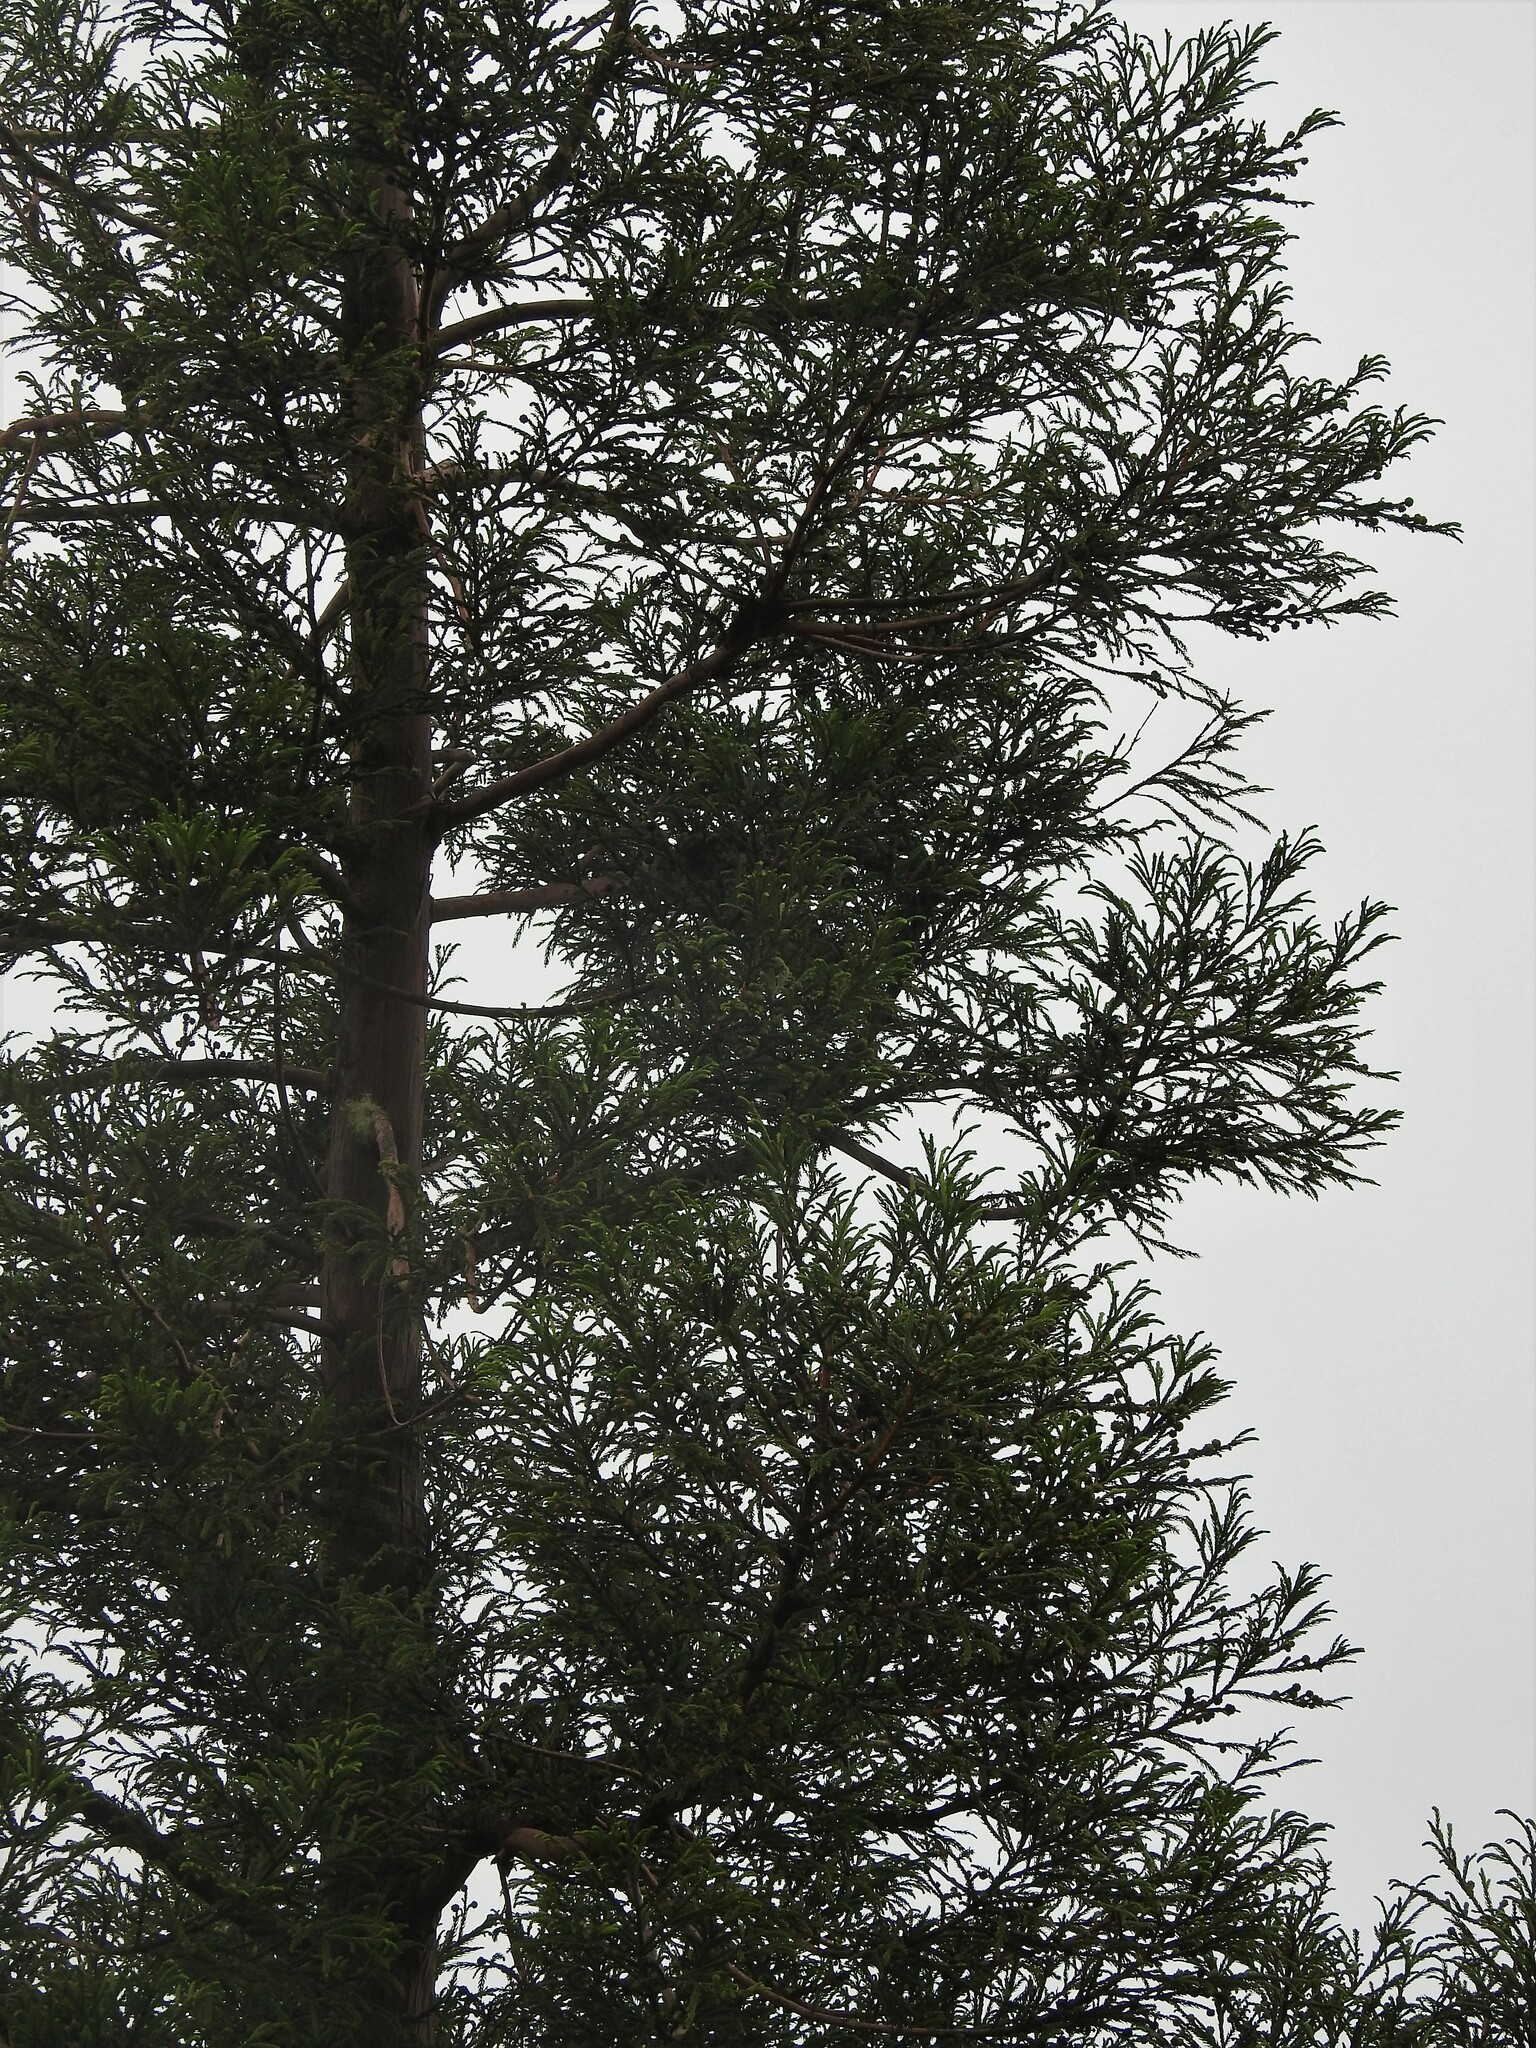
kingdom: Plantae
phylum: Tracheophyta
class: Pinopsida
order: Pinales
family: Cupressaceae
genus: Cryptomeria
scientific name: Cryptomeria japonica
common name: Japanese cedar
